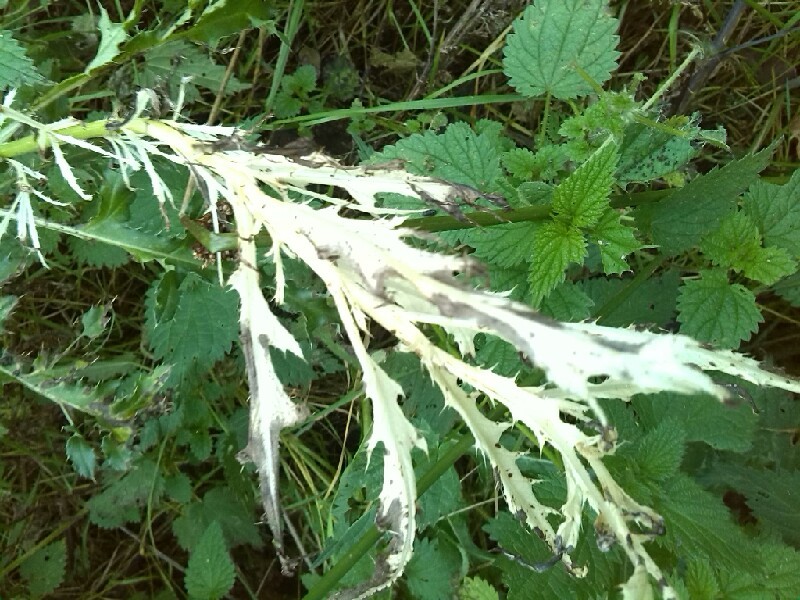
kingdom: Bacteria
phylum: Proteobacteria
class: Gammaproteobacteria
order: Pseudomonadales
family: Pseudomonadaceae
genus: Pseudomonas
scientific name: Pseudomonas syringae
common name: Bacterial speck
